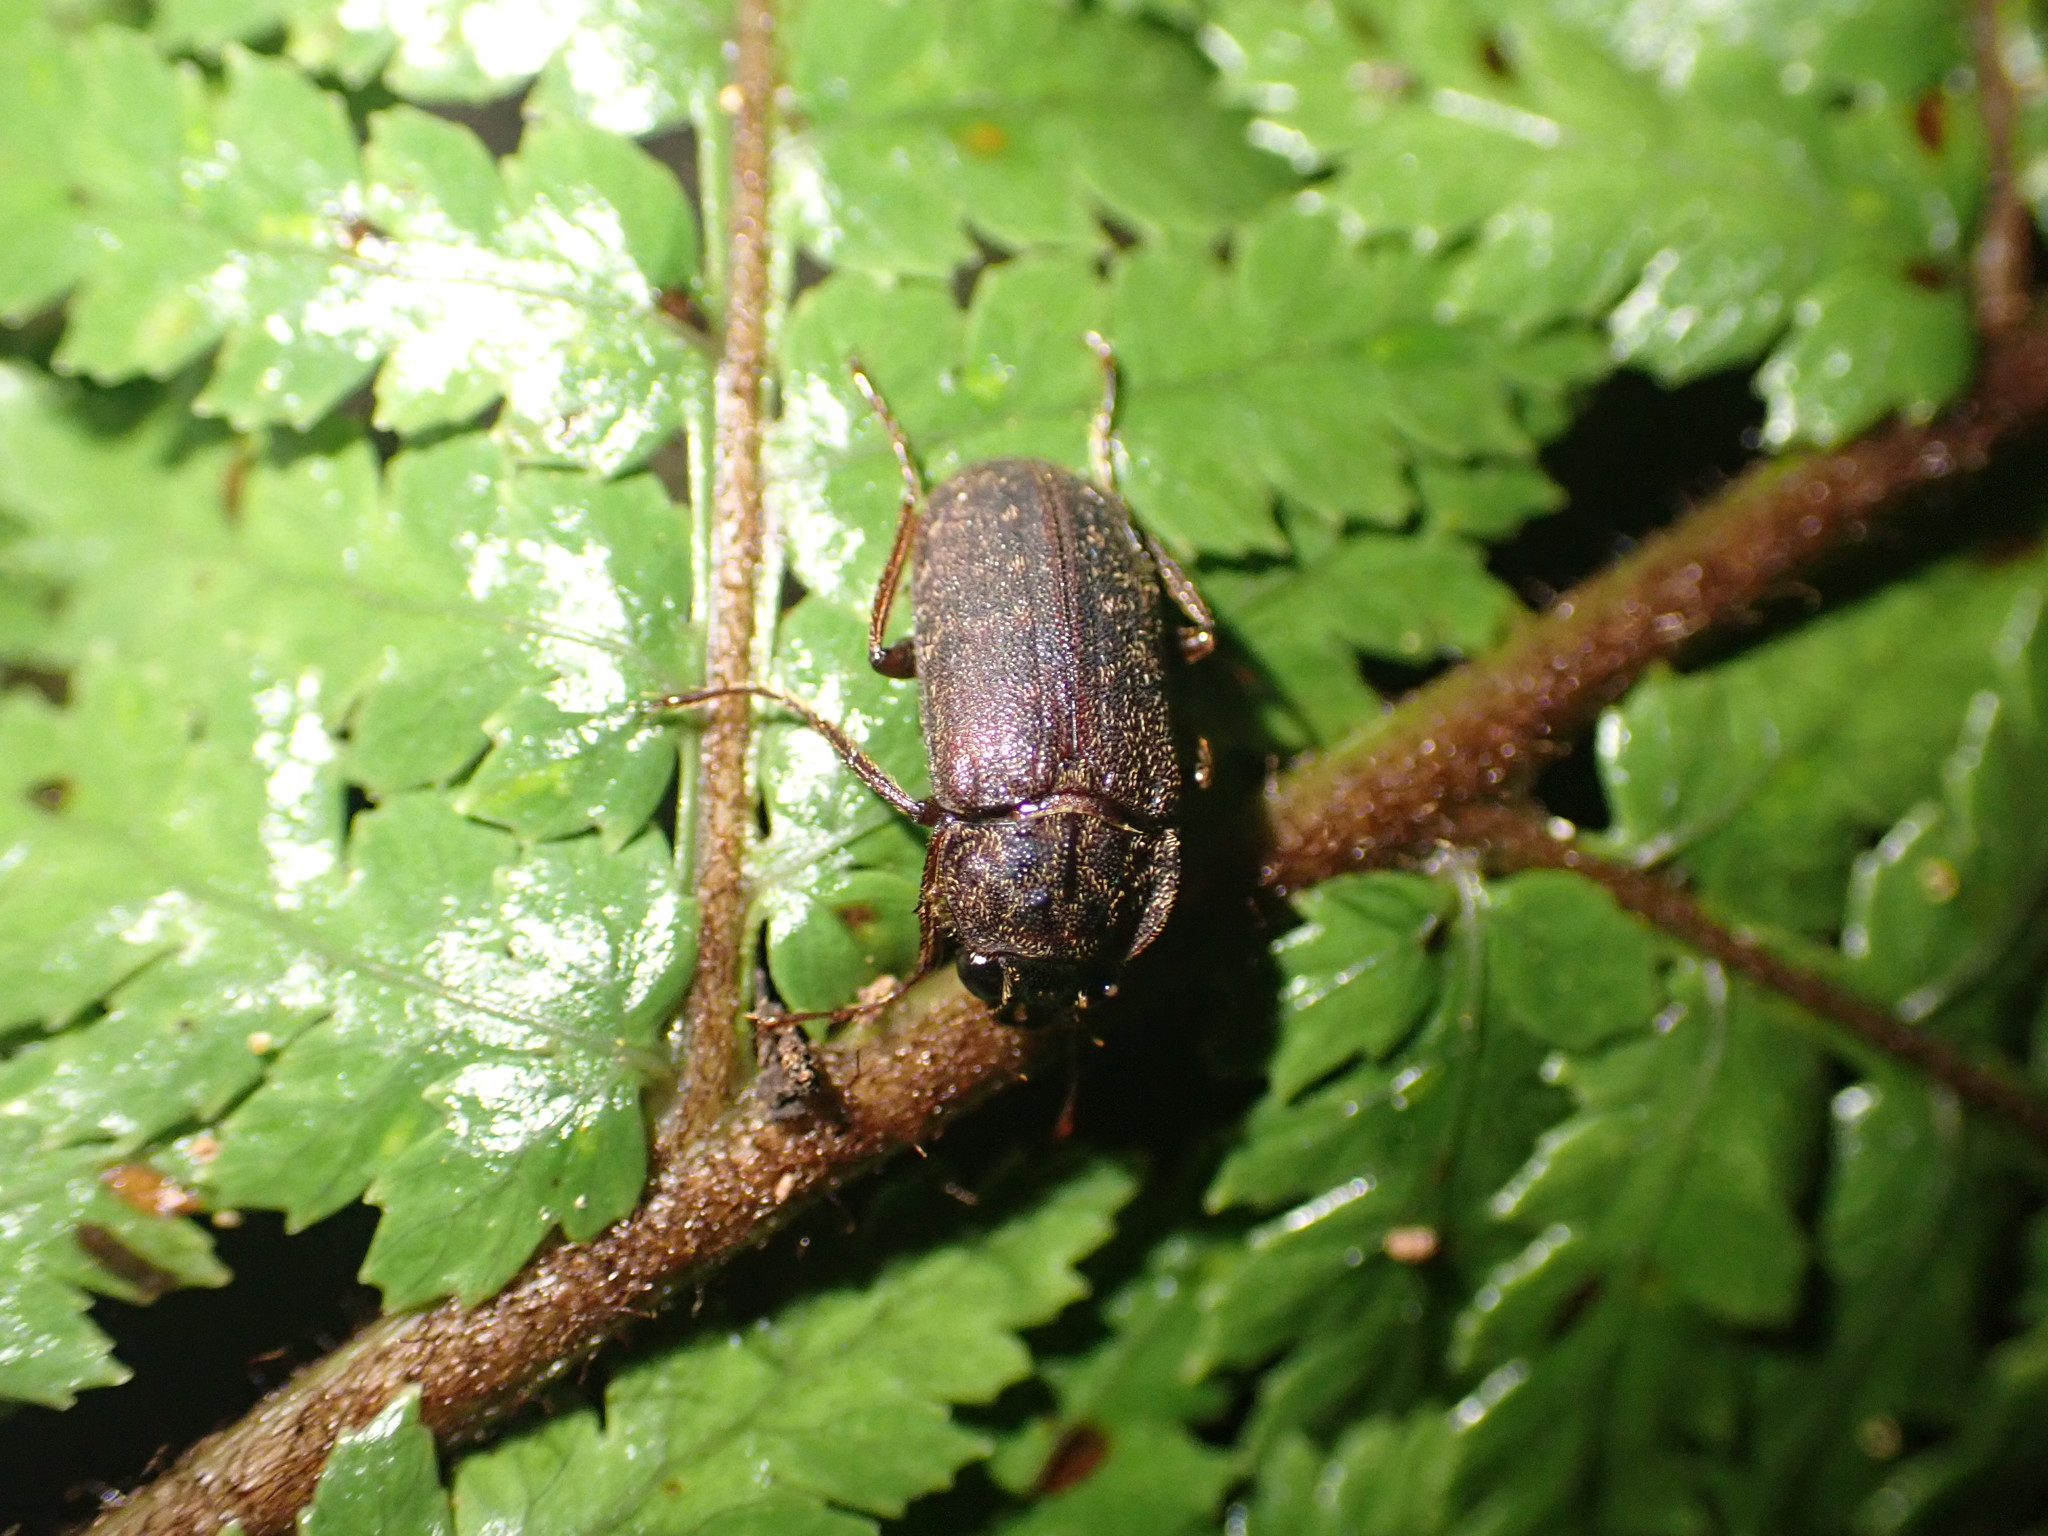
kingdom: Animalia
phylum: Arthropoda
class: Insecta
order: Coleoptera
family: Lucanidae
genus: Mitophyllus
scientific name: Mitophyllus reflexus
